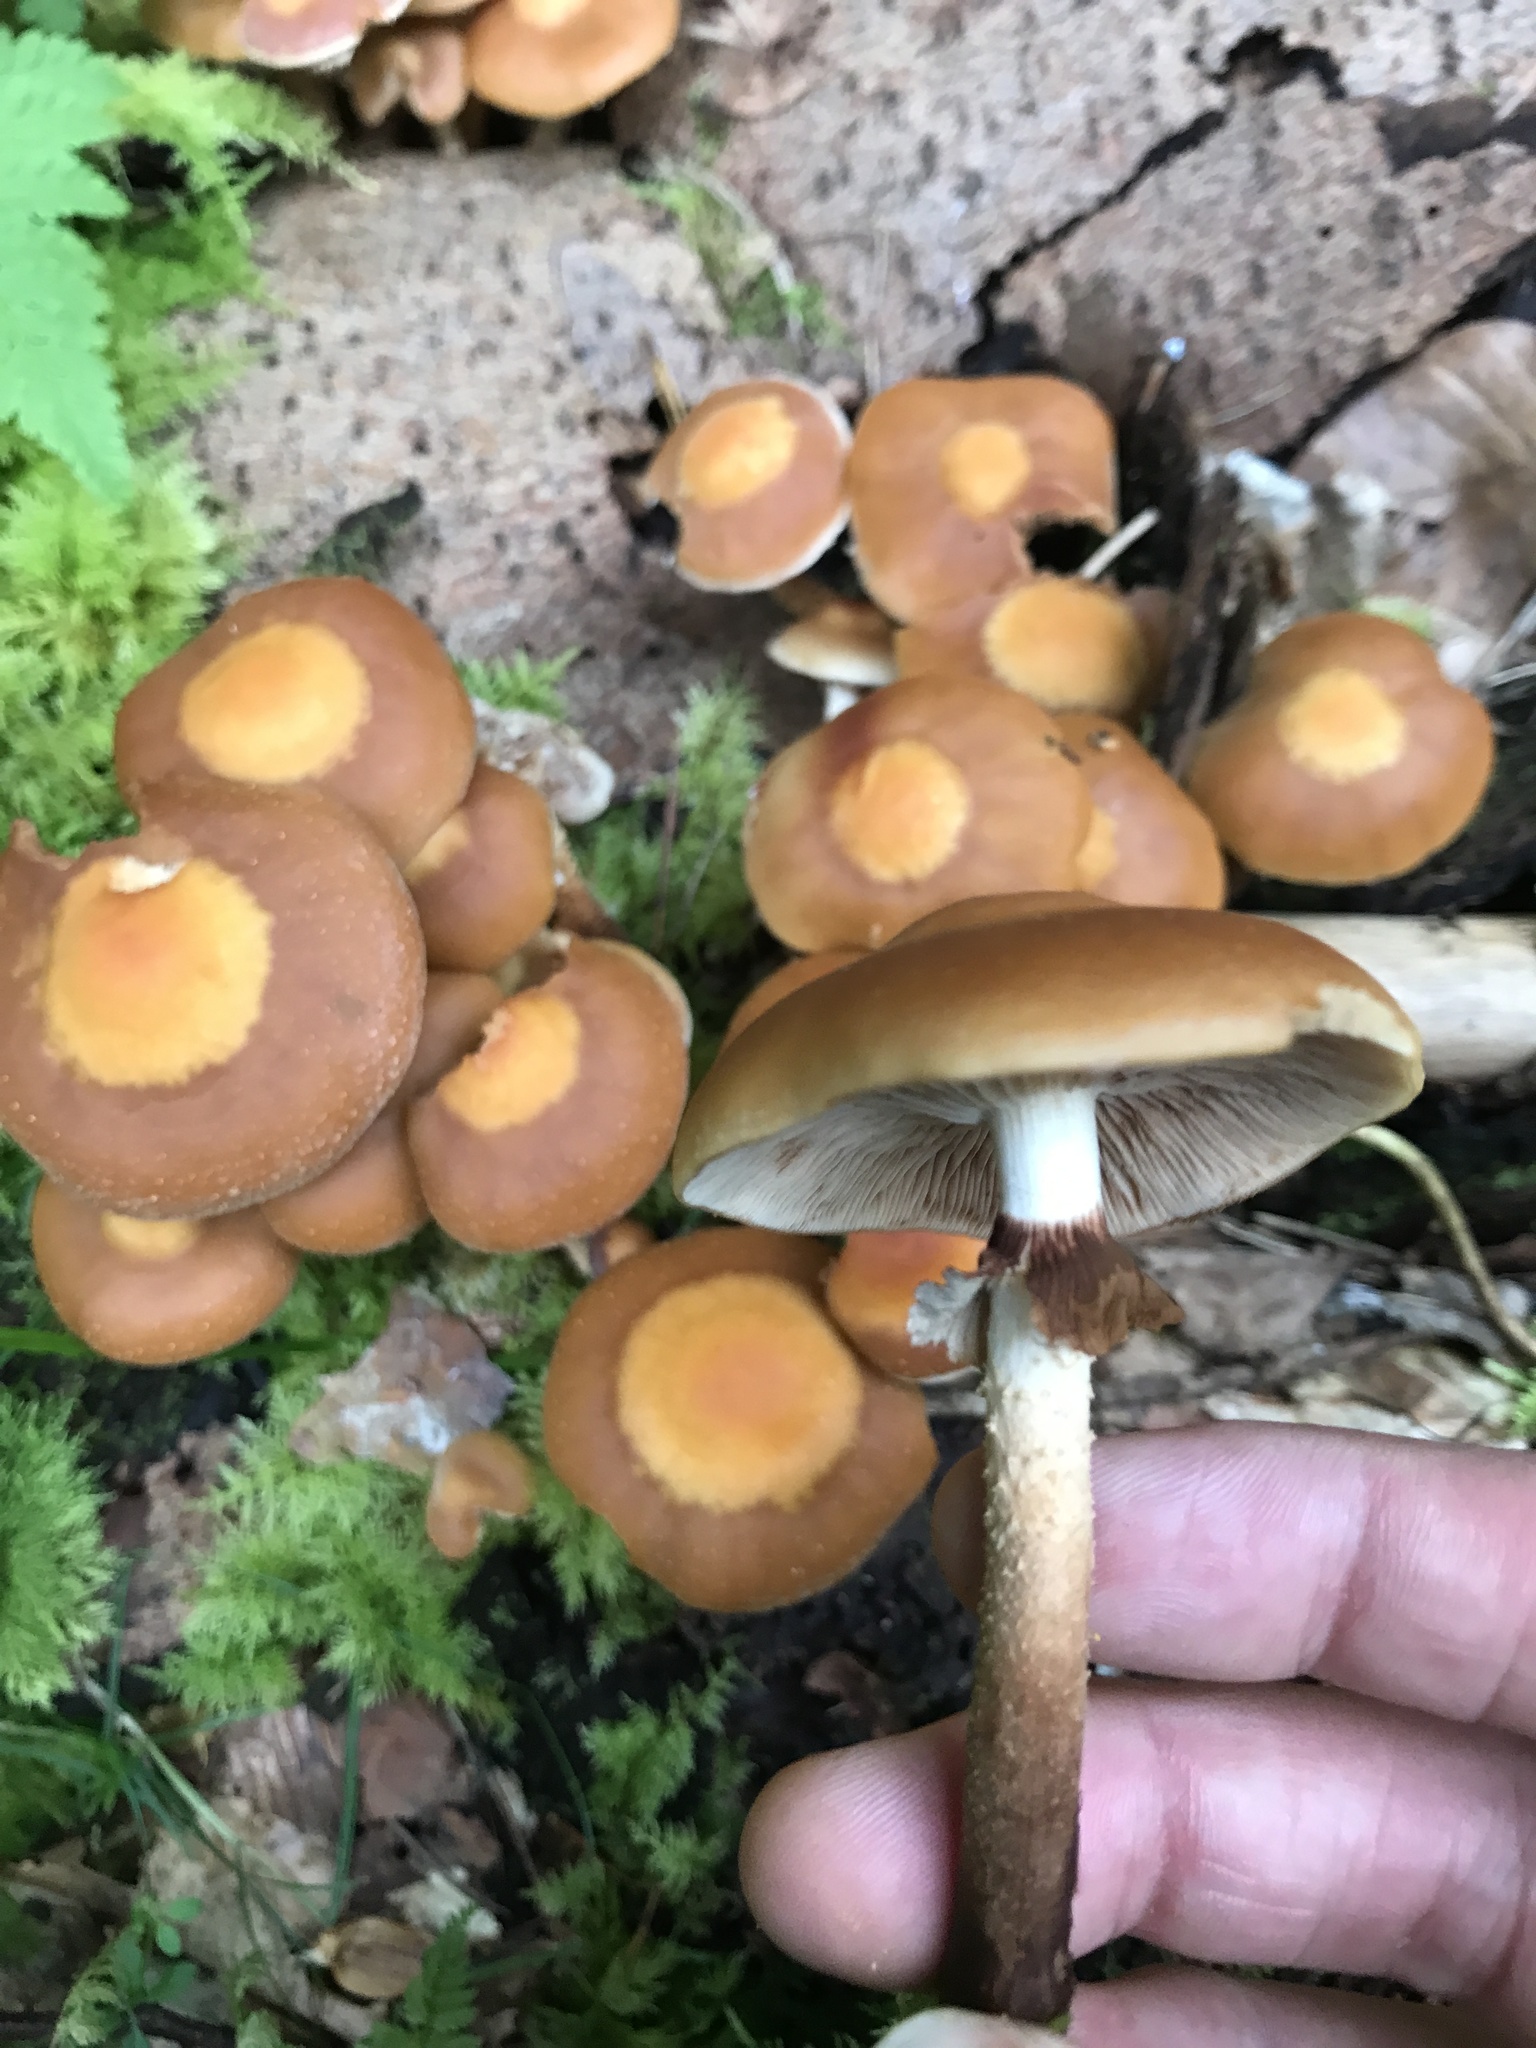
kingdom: Fungi
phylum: Basidiomycota
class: Agaricomycetes
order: Agaricales
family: Strophariaceae
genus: Kuehneromyces
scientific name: Kuehneromyces mutabilis
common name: Sheathed woodtuft
